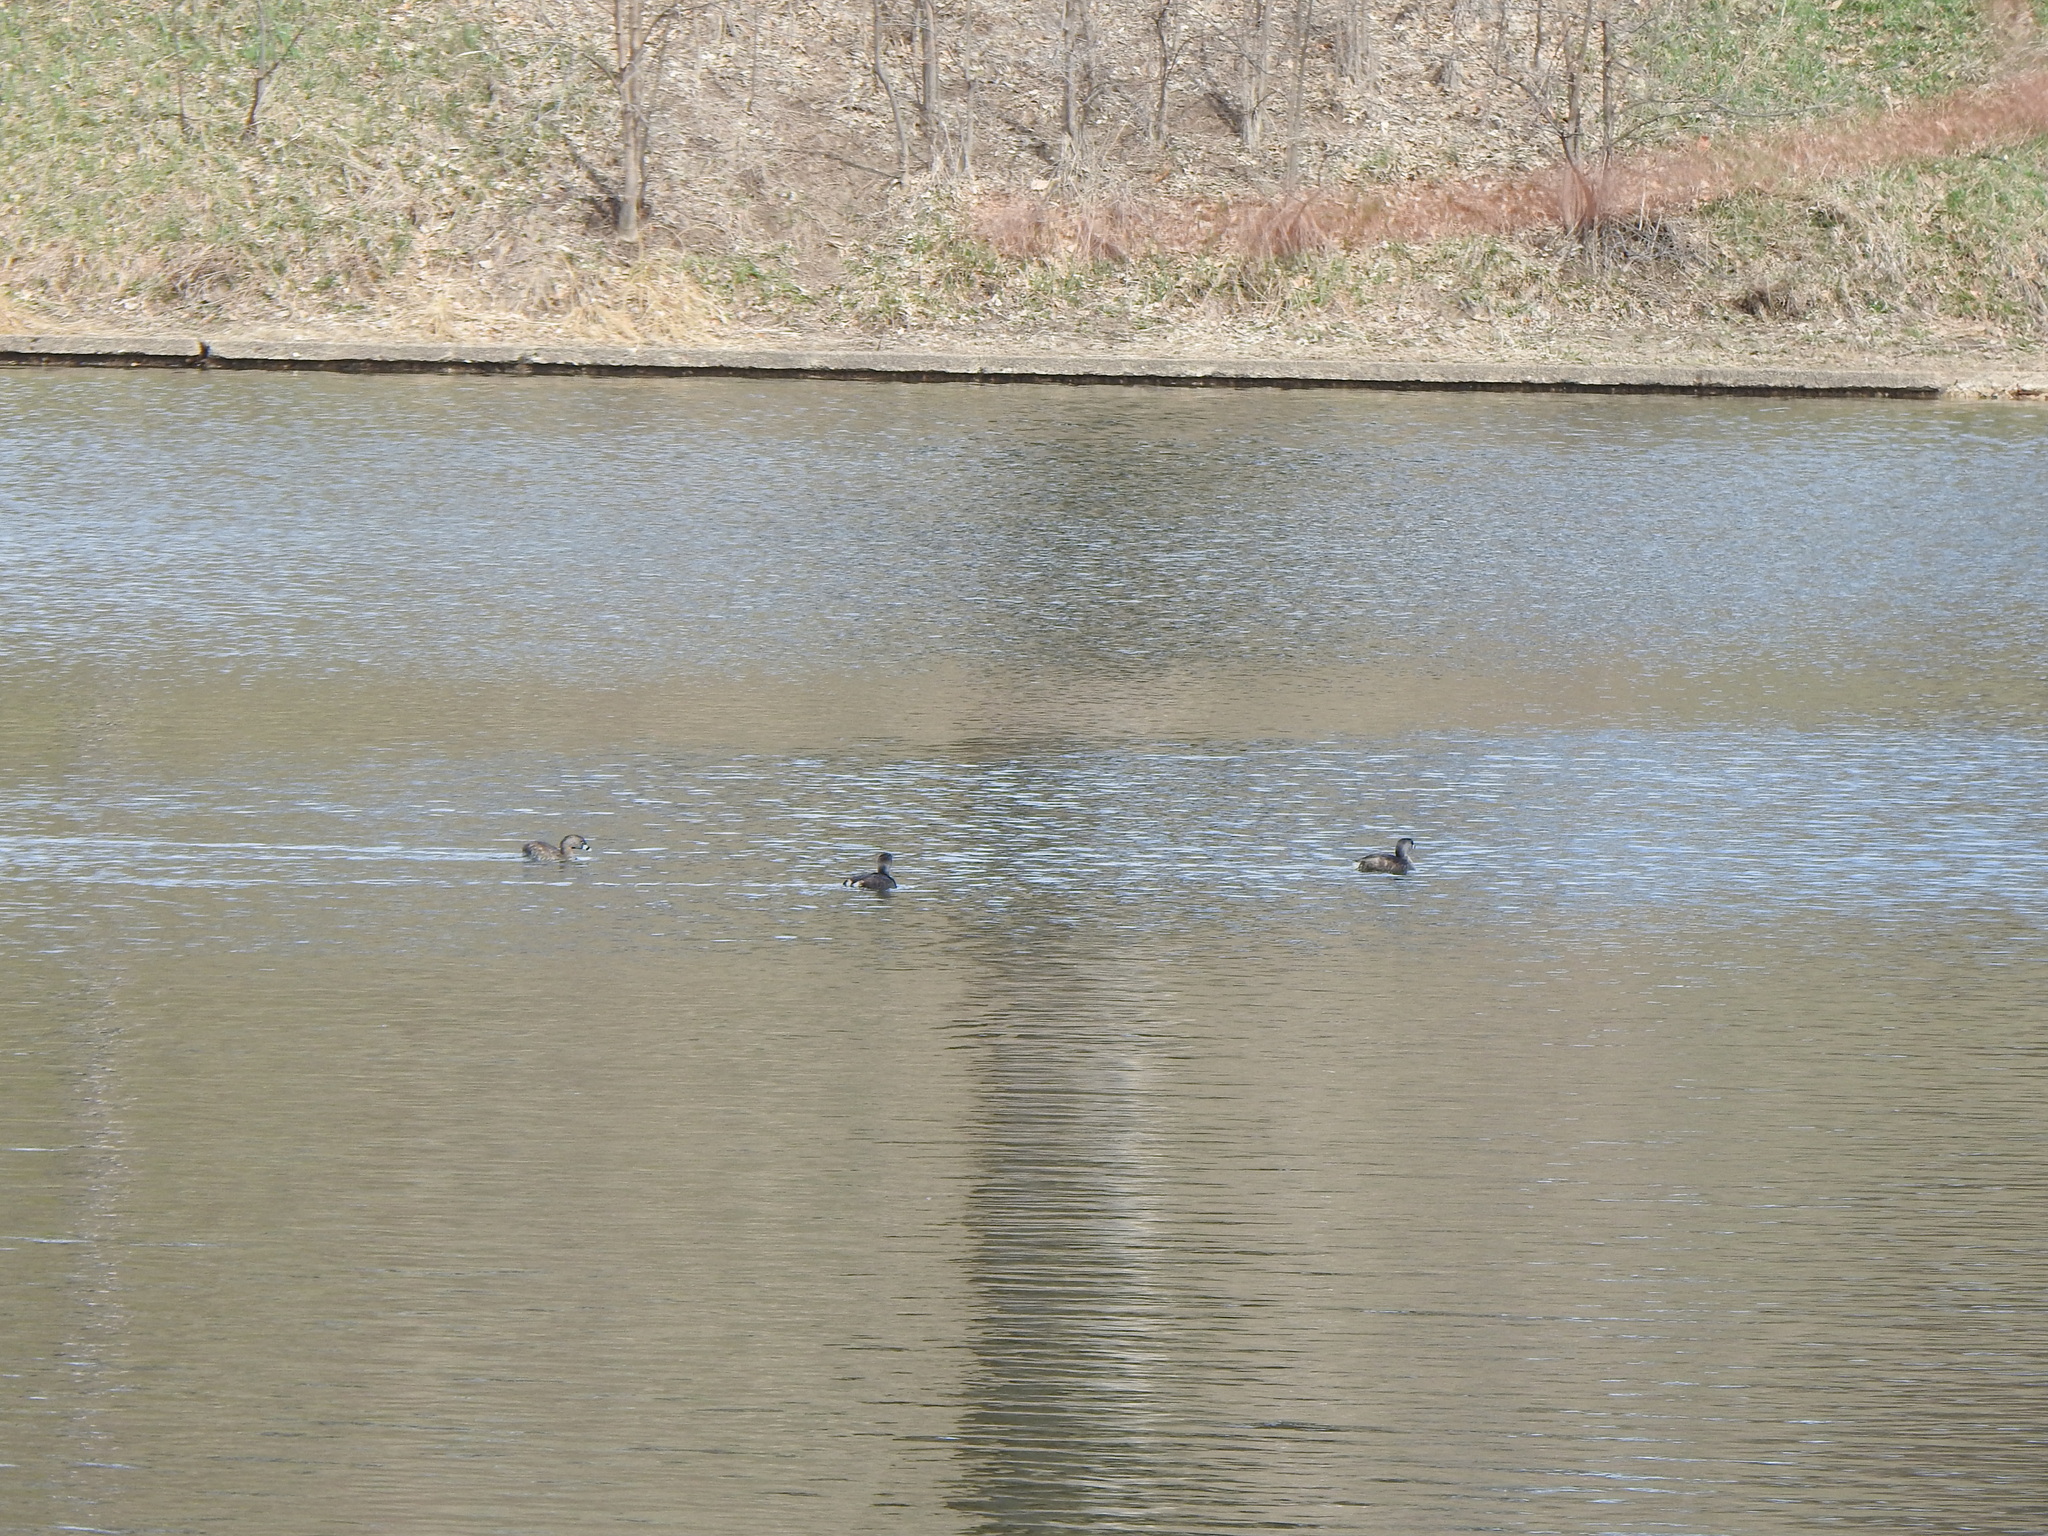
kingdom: Animalia
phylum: Chordata
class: Aves
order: Podicipediformes
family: Podicipedidae
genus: Podilymbus
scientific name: Podilymbus podiceps
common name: Pied-billed grebe
